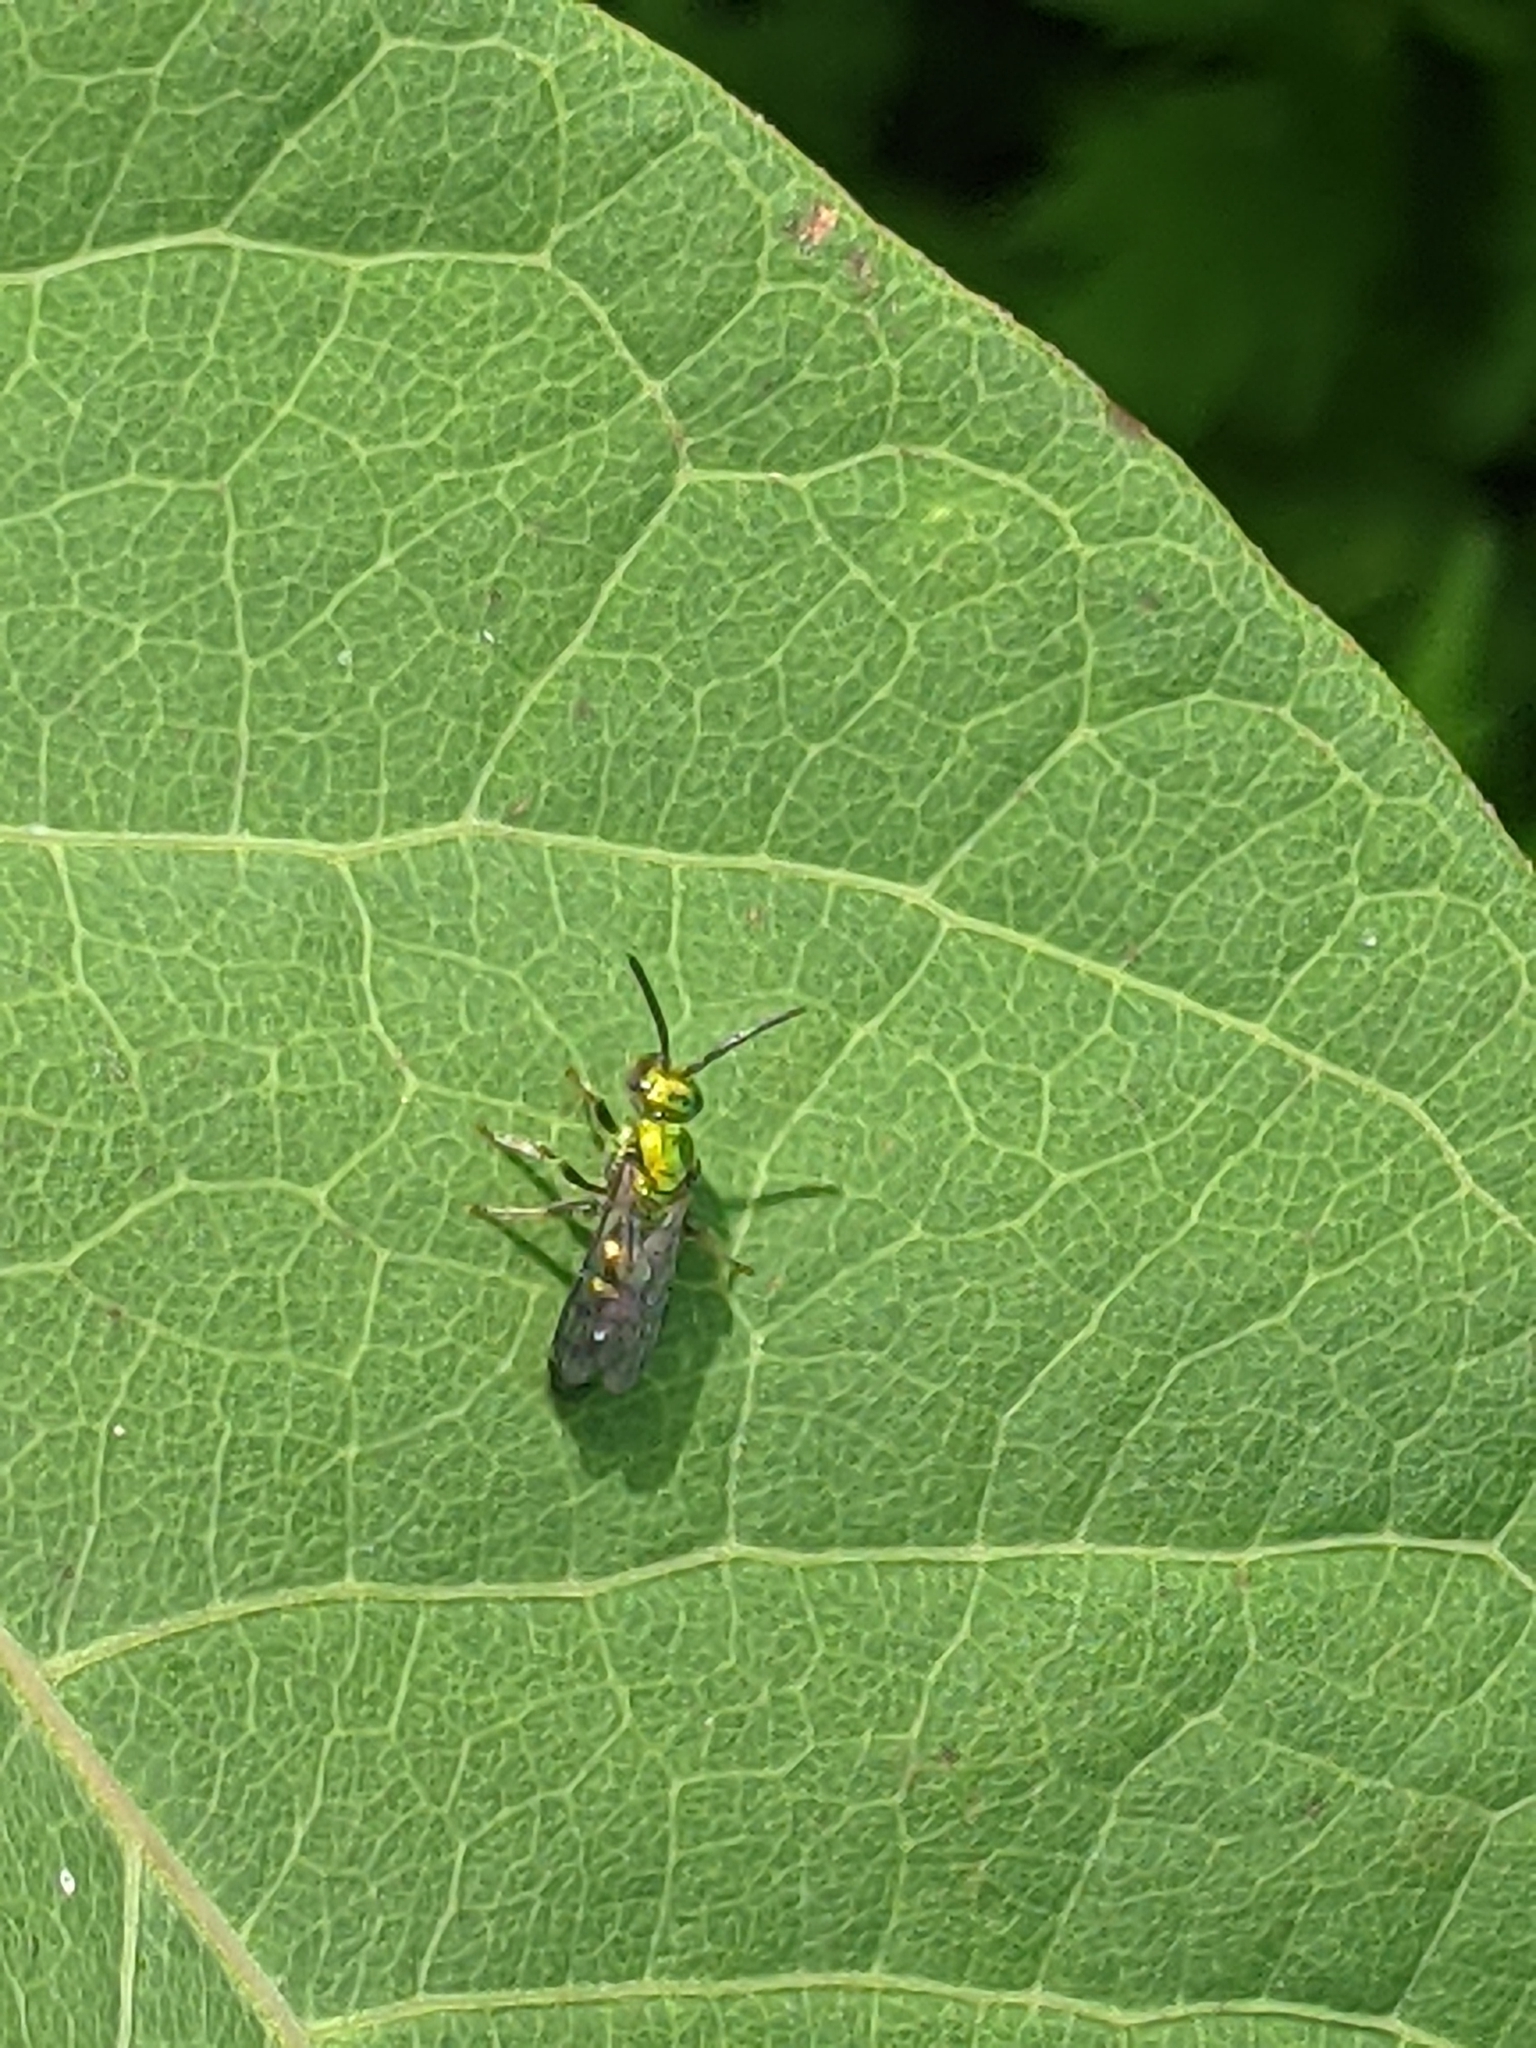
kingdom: Animalia
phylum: Arthropoda
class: Insecta
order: Hymenoptera
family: Halictidae
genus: Augochlora
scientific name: Augochlora pura
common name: Pure green sweat bee
